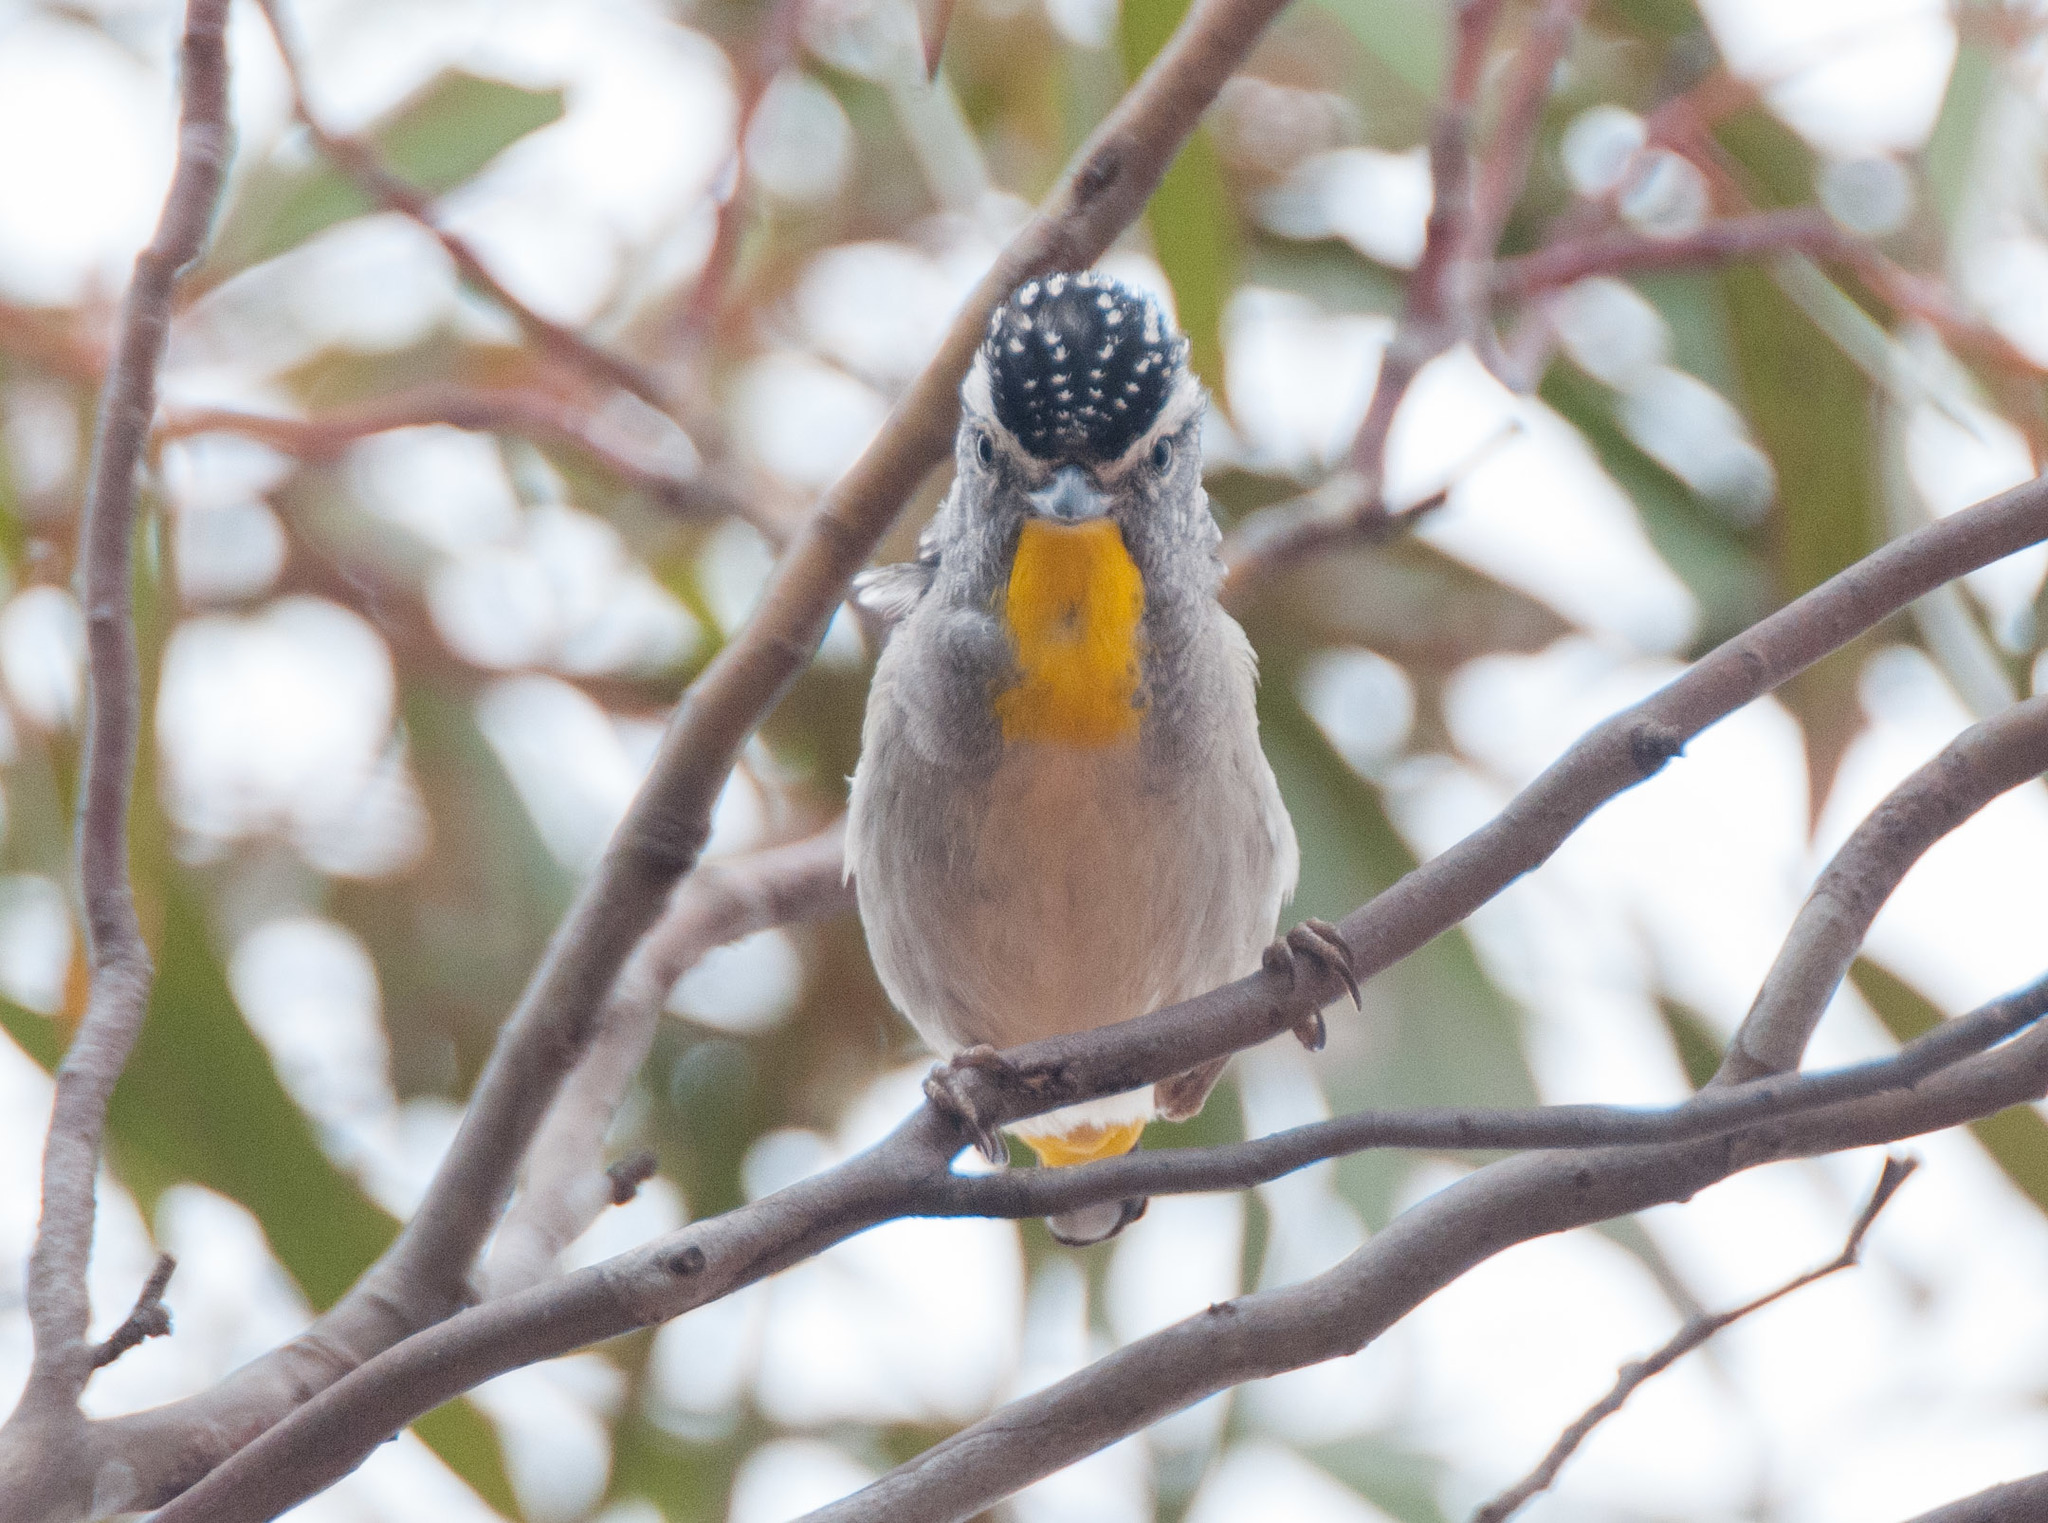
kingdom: Animalia
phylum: Chordata
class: Aves
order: Passeriformes
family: Pardalotidae
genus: Pardalotus
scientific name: Pardalotus punctatus
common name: Spotted pardalote
